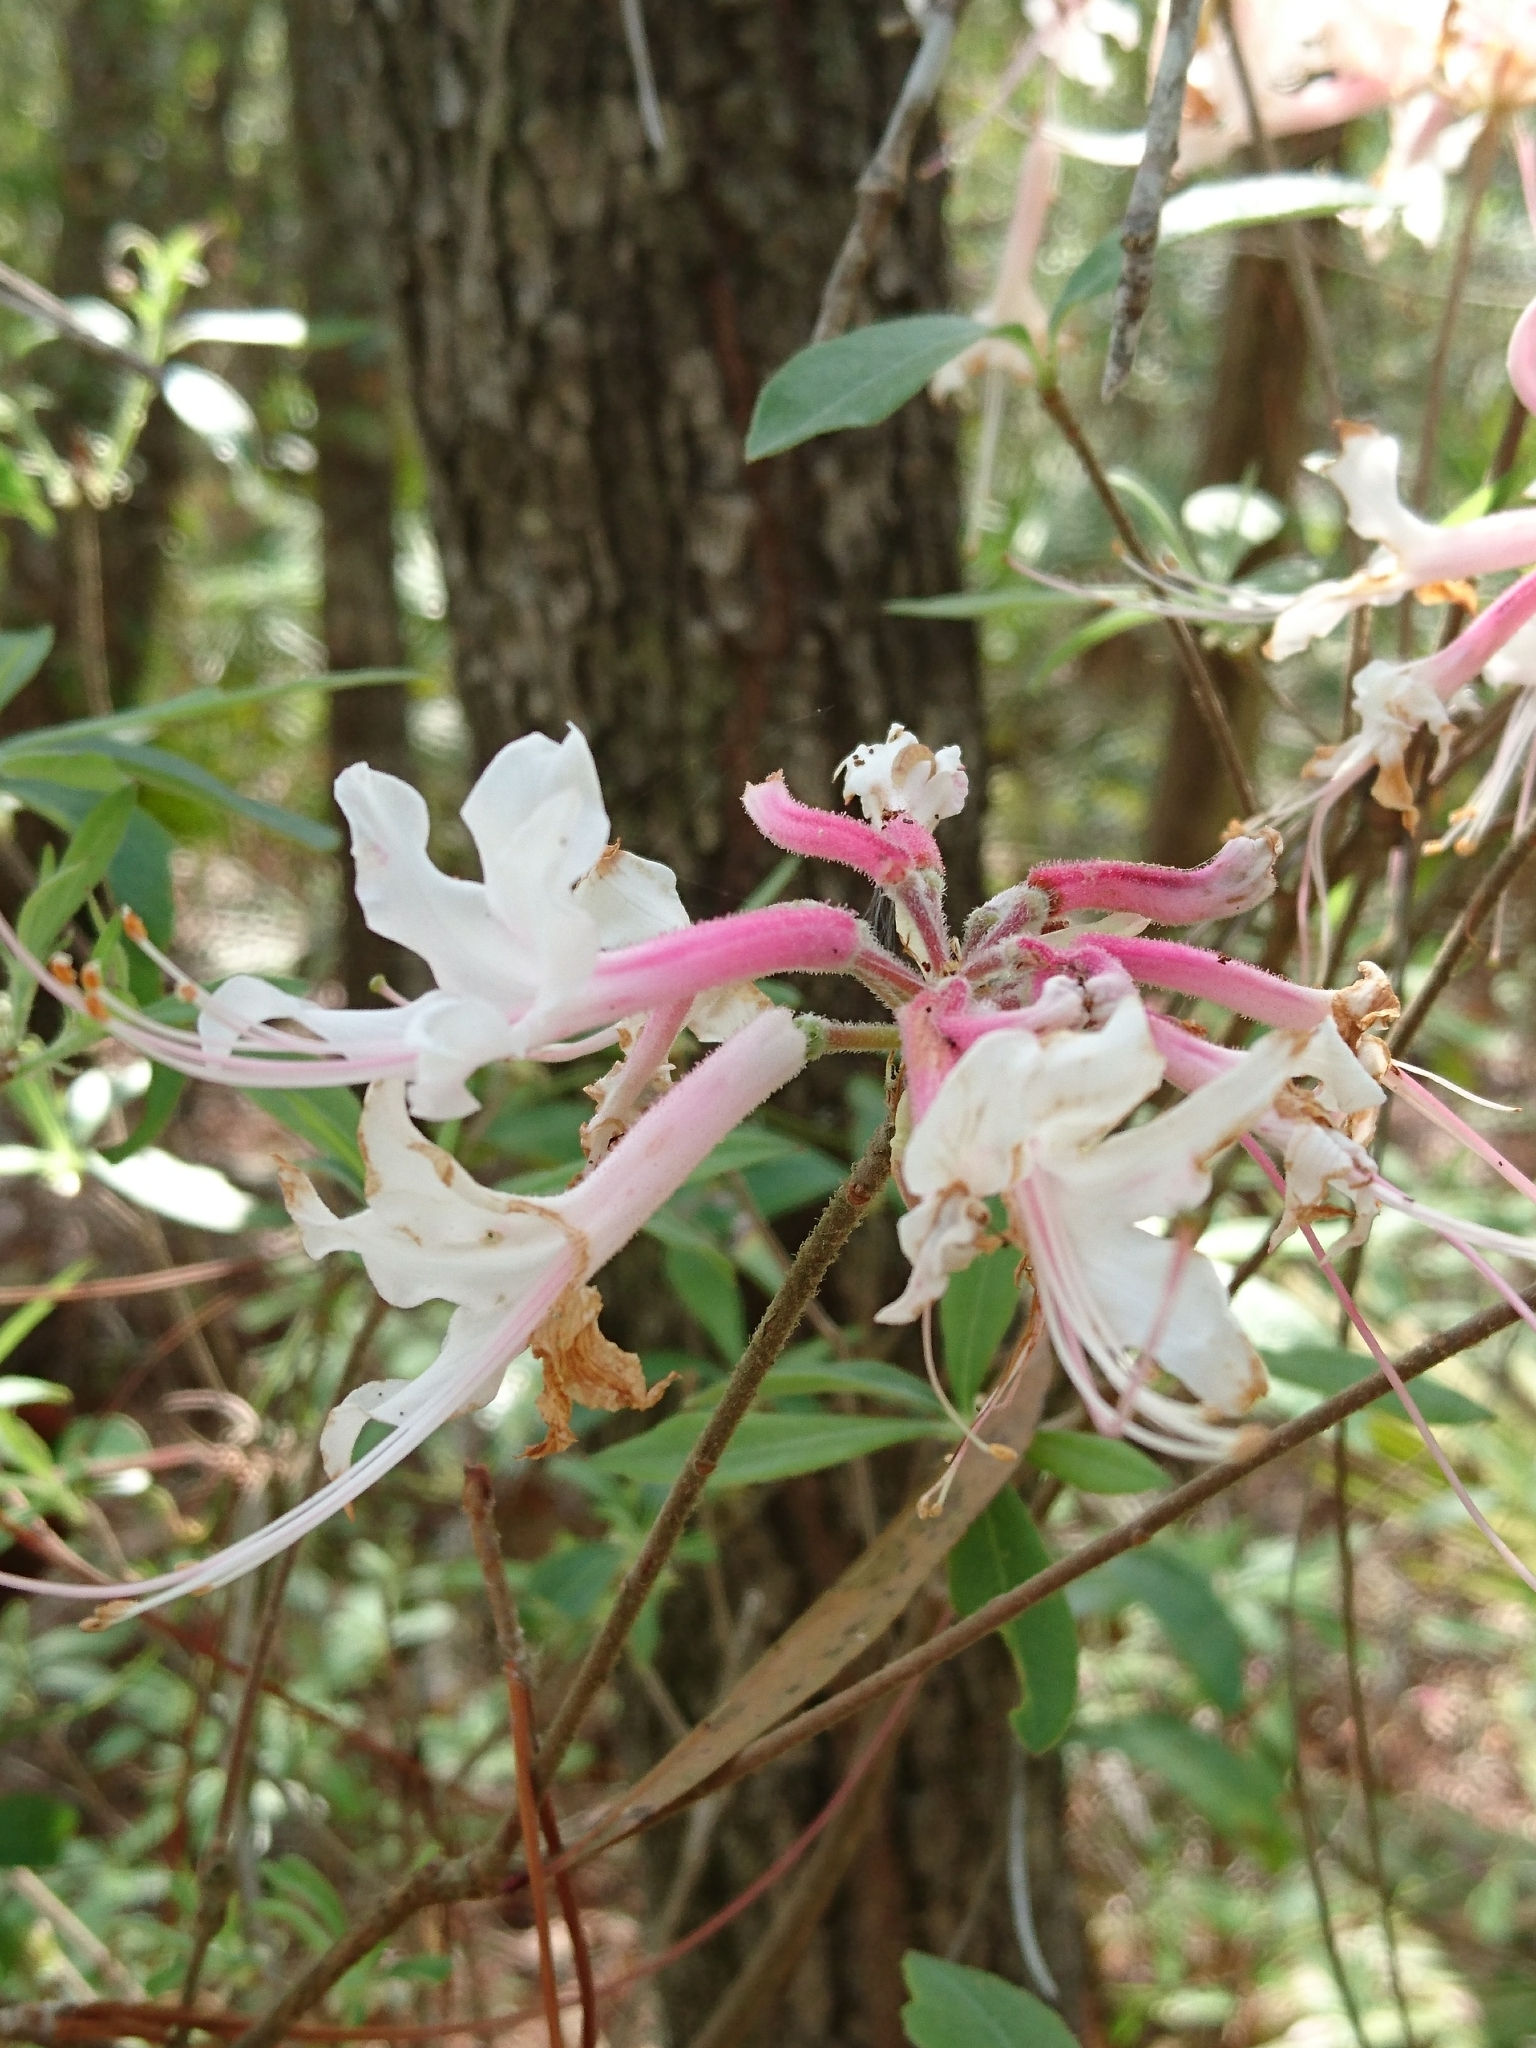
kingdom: Plantae
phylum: Tracheophyta
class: Magnoliopsida
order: Ericales
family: Ericaceae
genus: Rhododendron
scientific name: Rhododendron canescens
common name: Mountain azalea
